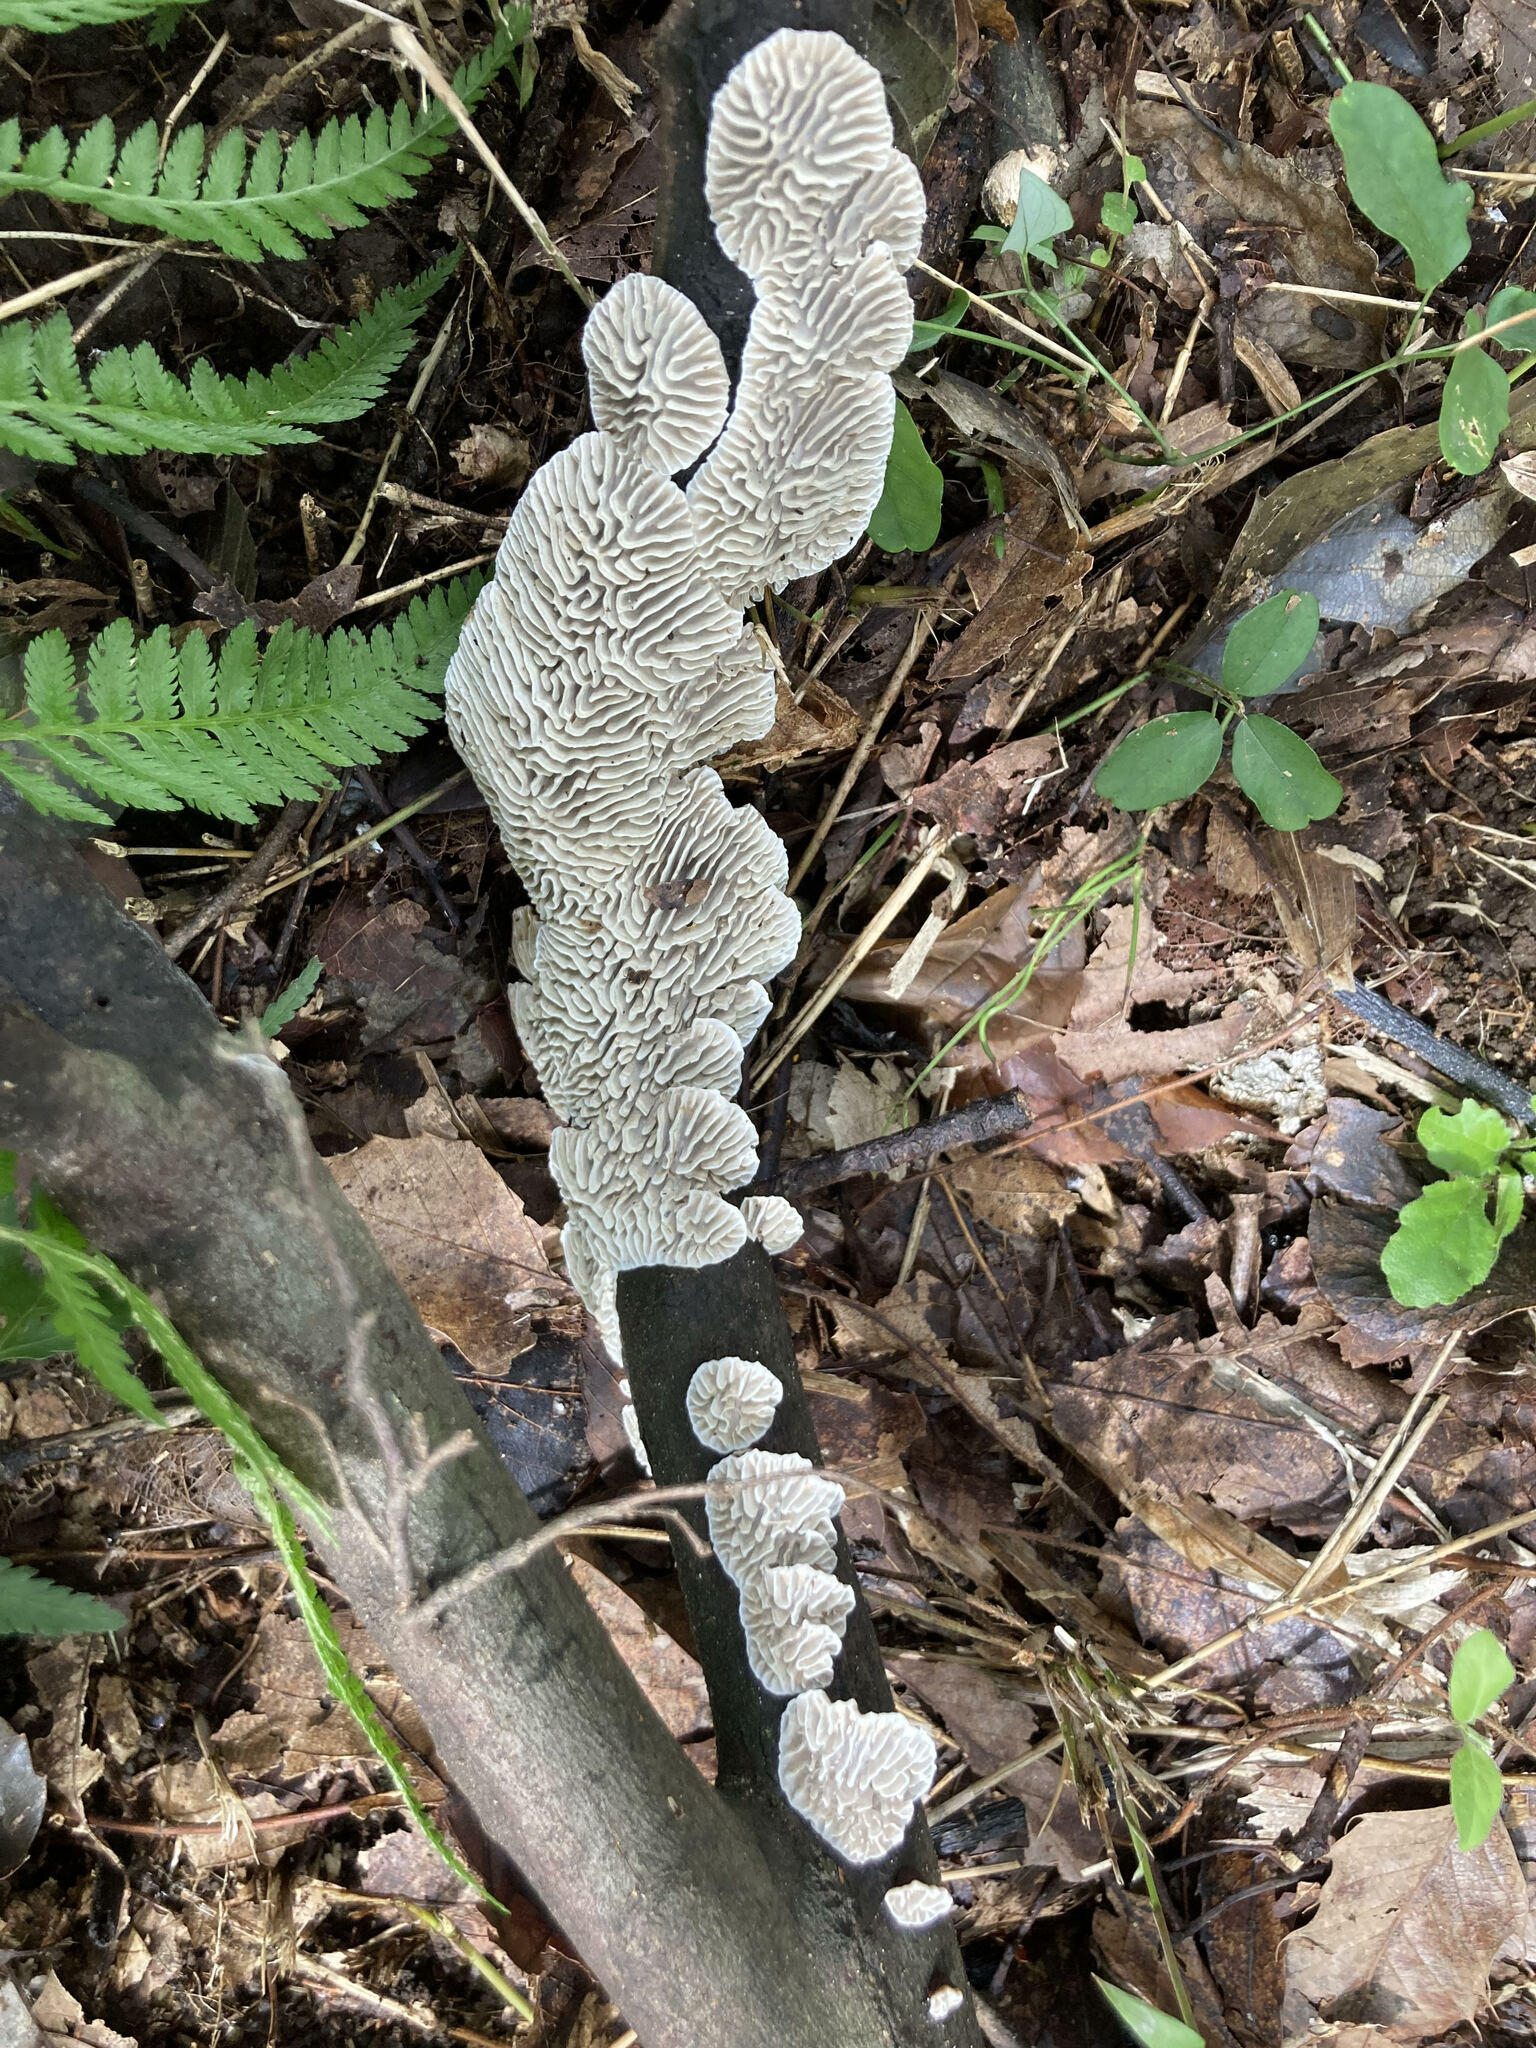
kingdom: Fungi
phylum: Basidiomycota
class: Agaricomycetes
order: Polyporales
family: Polyporaceae
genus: Lenzites
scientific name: Lenzites styracinus
